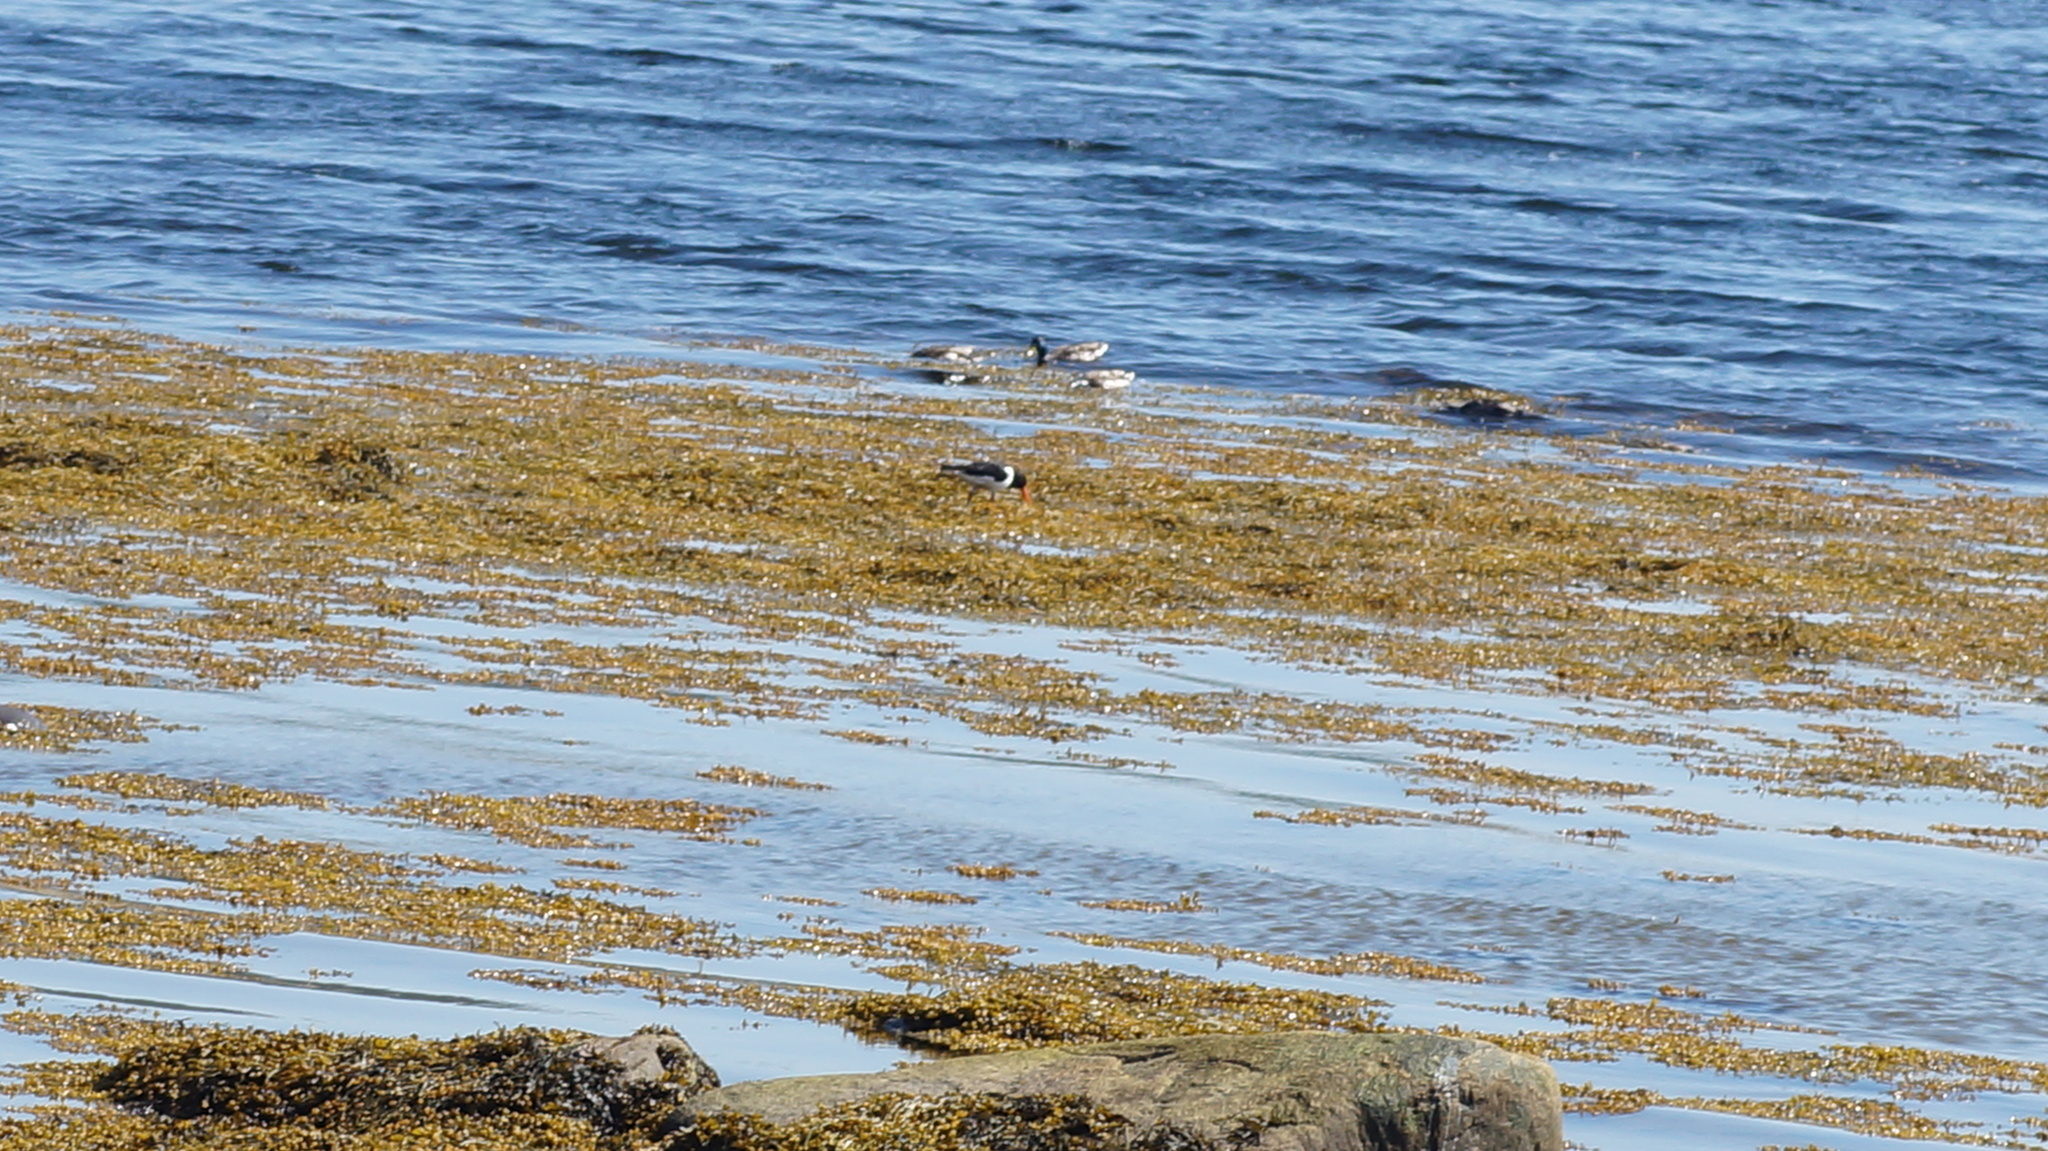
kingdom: Animalia
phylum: Chordata
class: Aves
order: Charadriiformes
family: Haematopodidae
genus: Haematopus
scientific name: Haematopus ostralegus
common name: Eurasian oystercatcher
